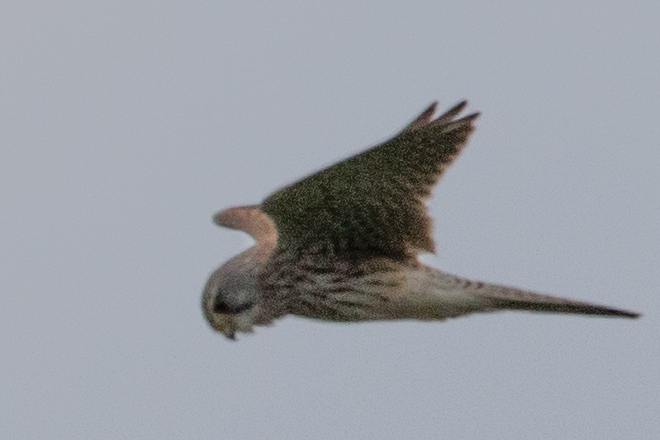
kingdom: Animalia
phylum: Chordata
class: Aves
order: Falconiformes
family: Falconidae
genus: Falco
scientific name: Falco tinnunculus
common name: Common kestrel
